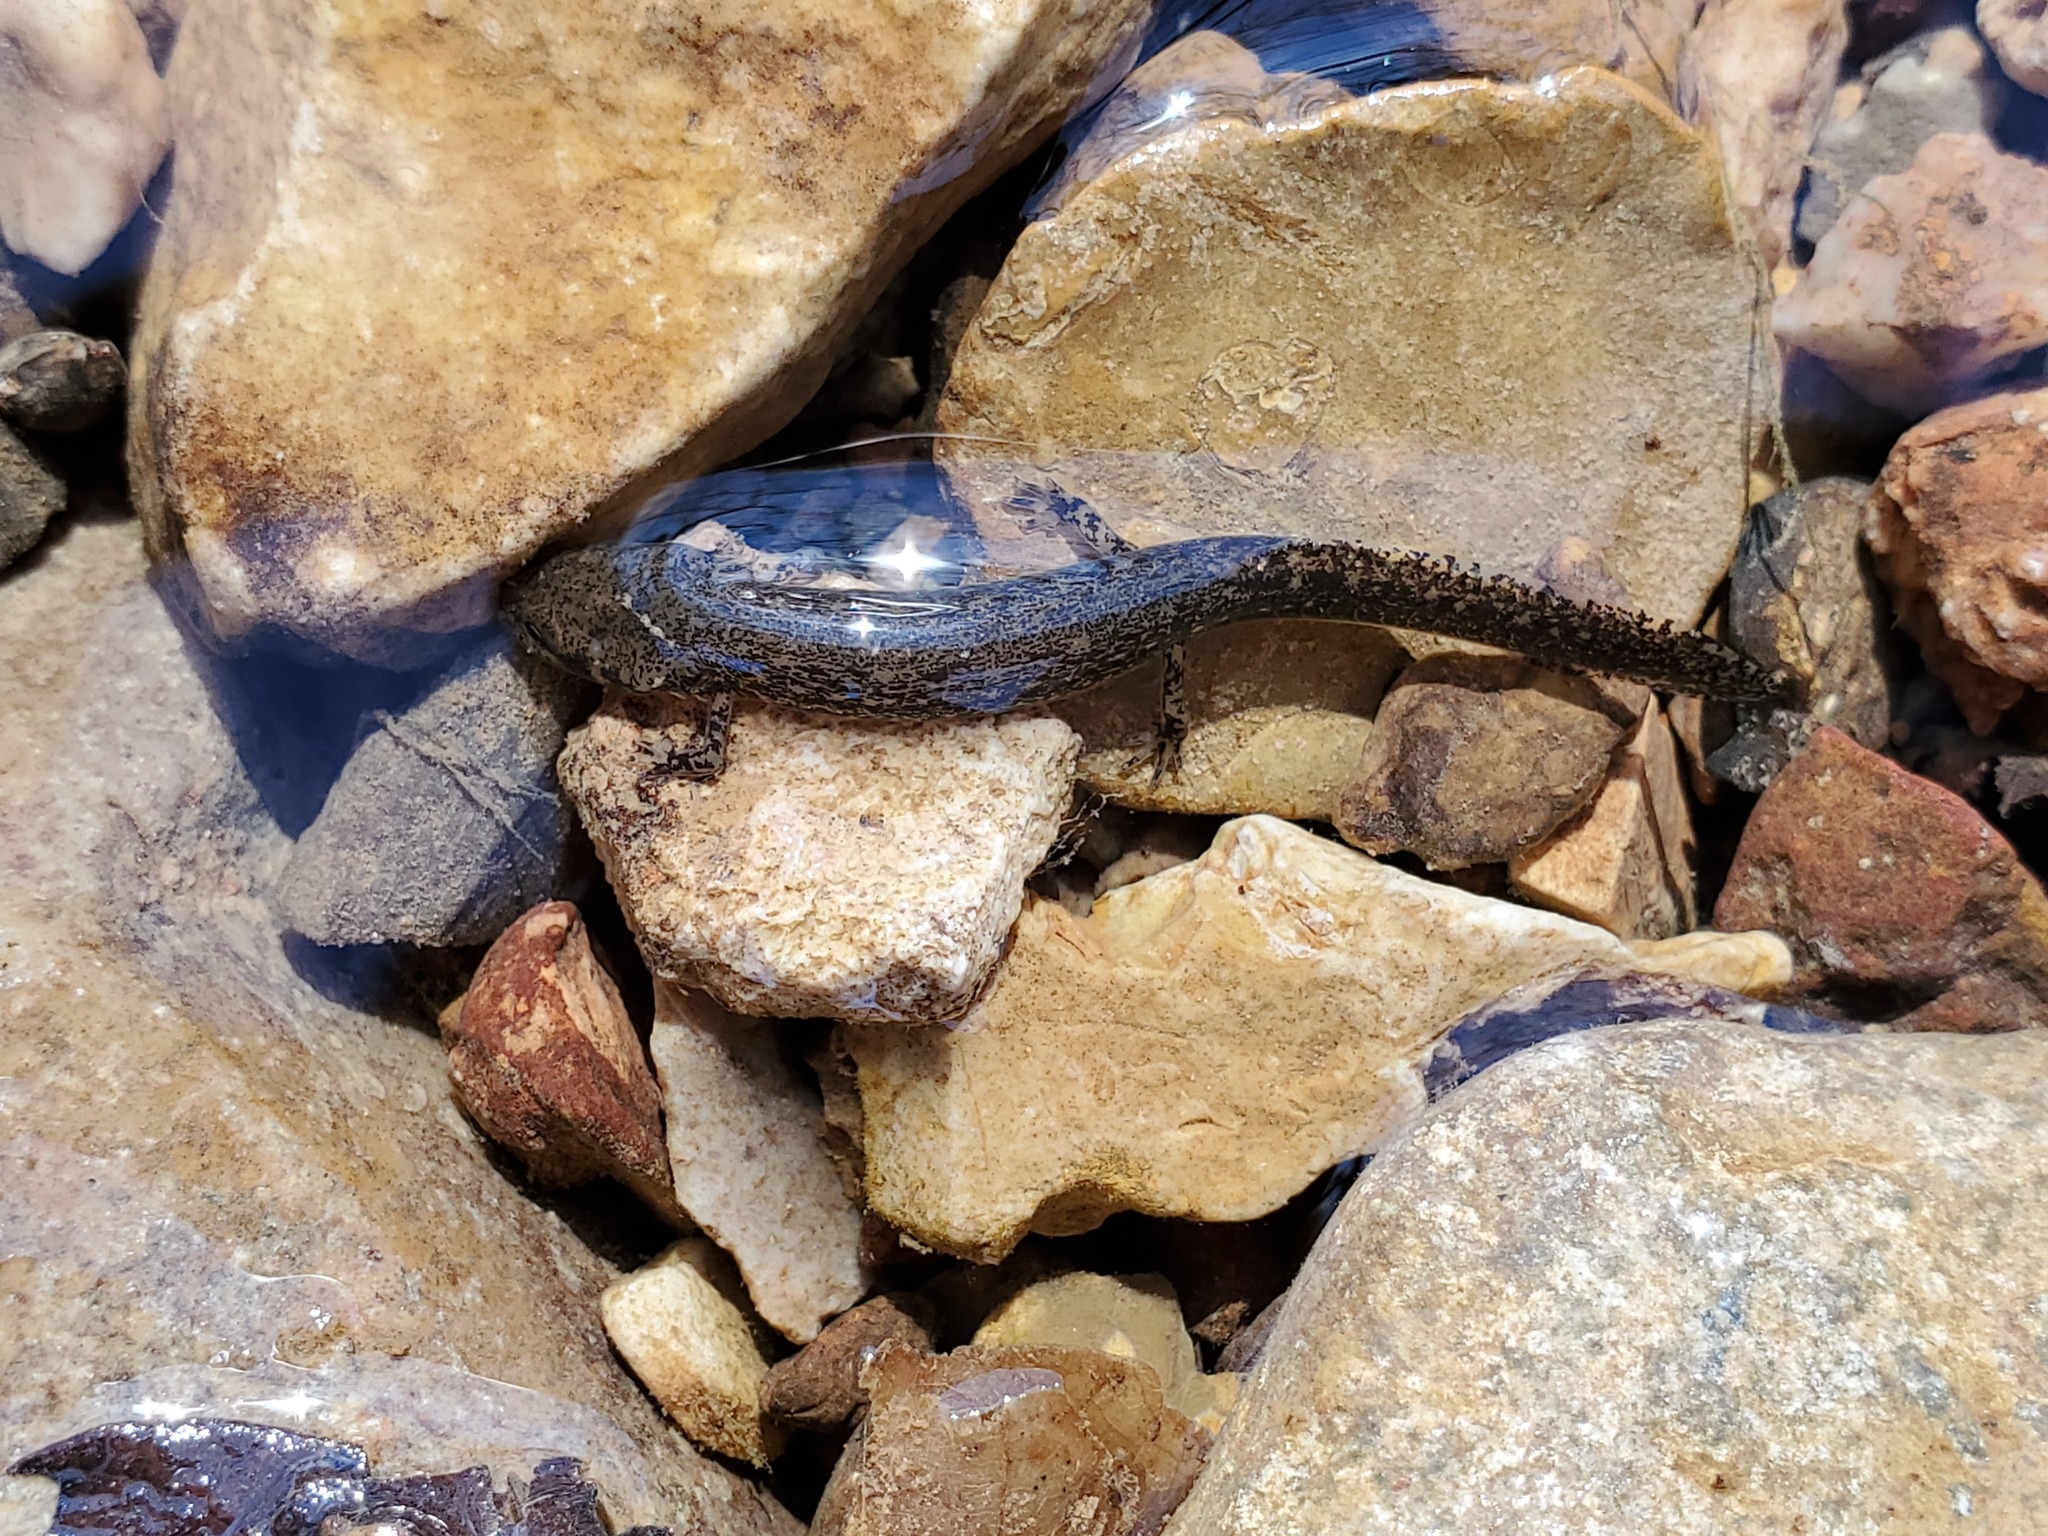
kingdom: Animalia
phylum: Chordata
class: Amphibia
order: Caudata
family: Plethodontidae
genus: Eurycea
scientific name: Eurycea cirrigera
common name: Southern two-lined salamander
